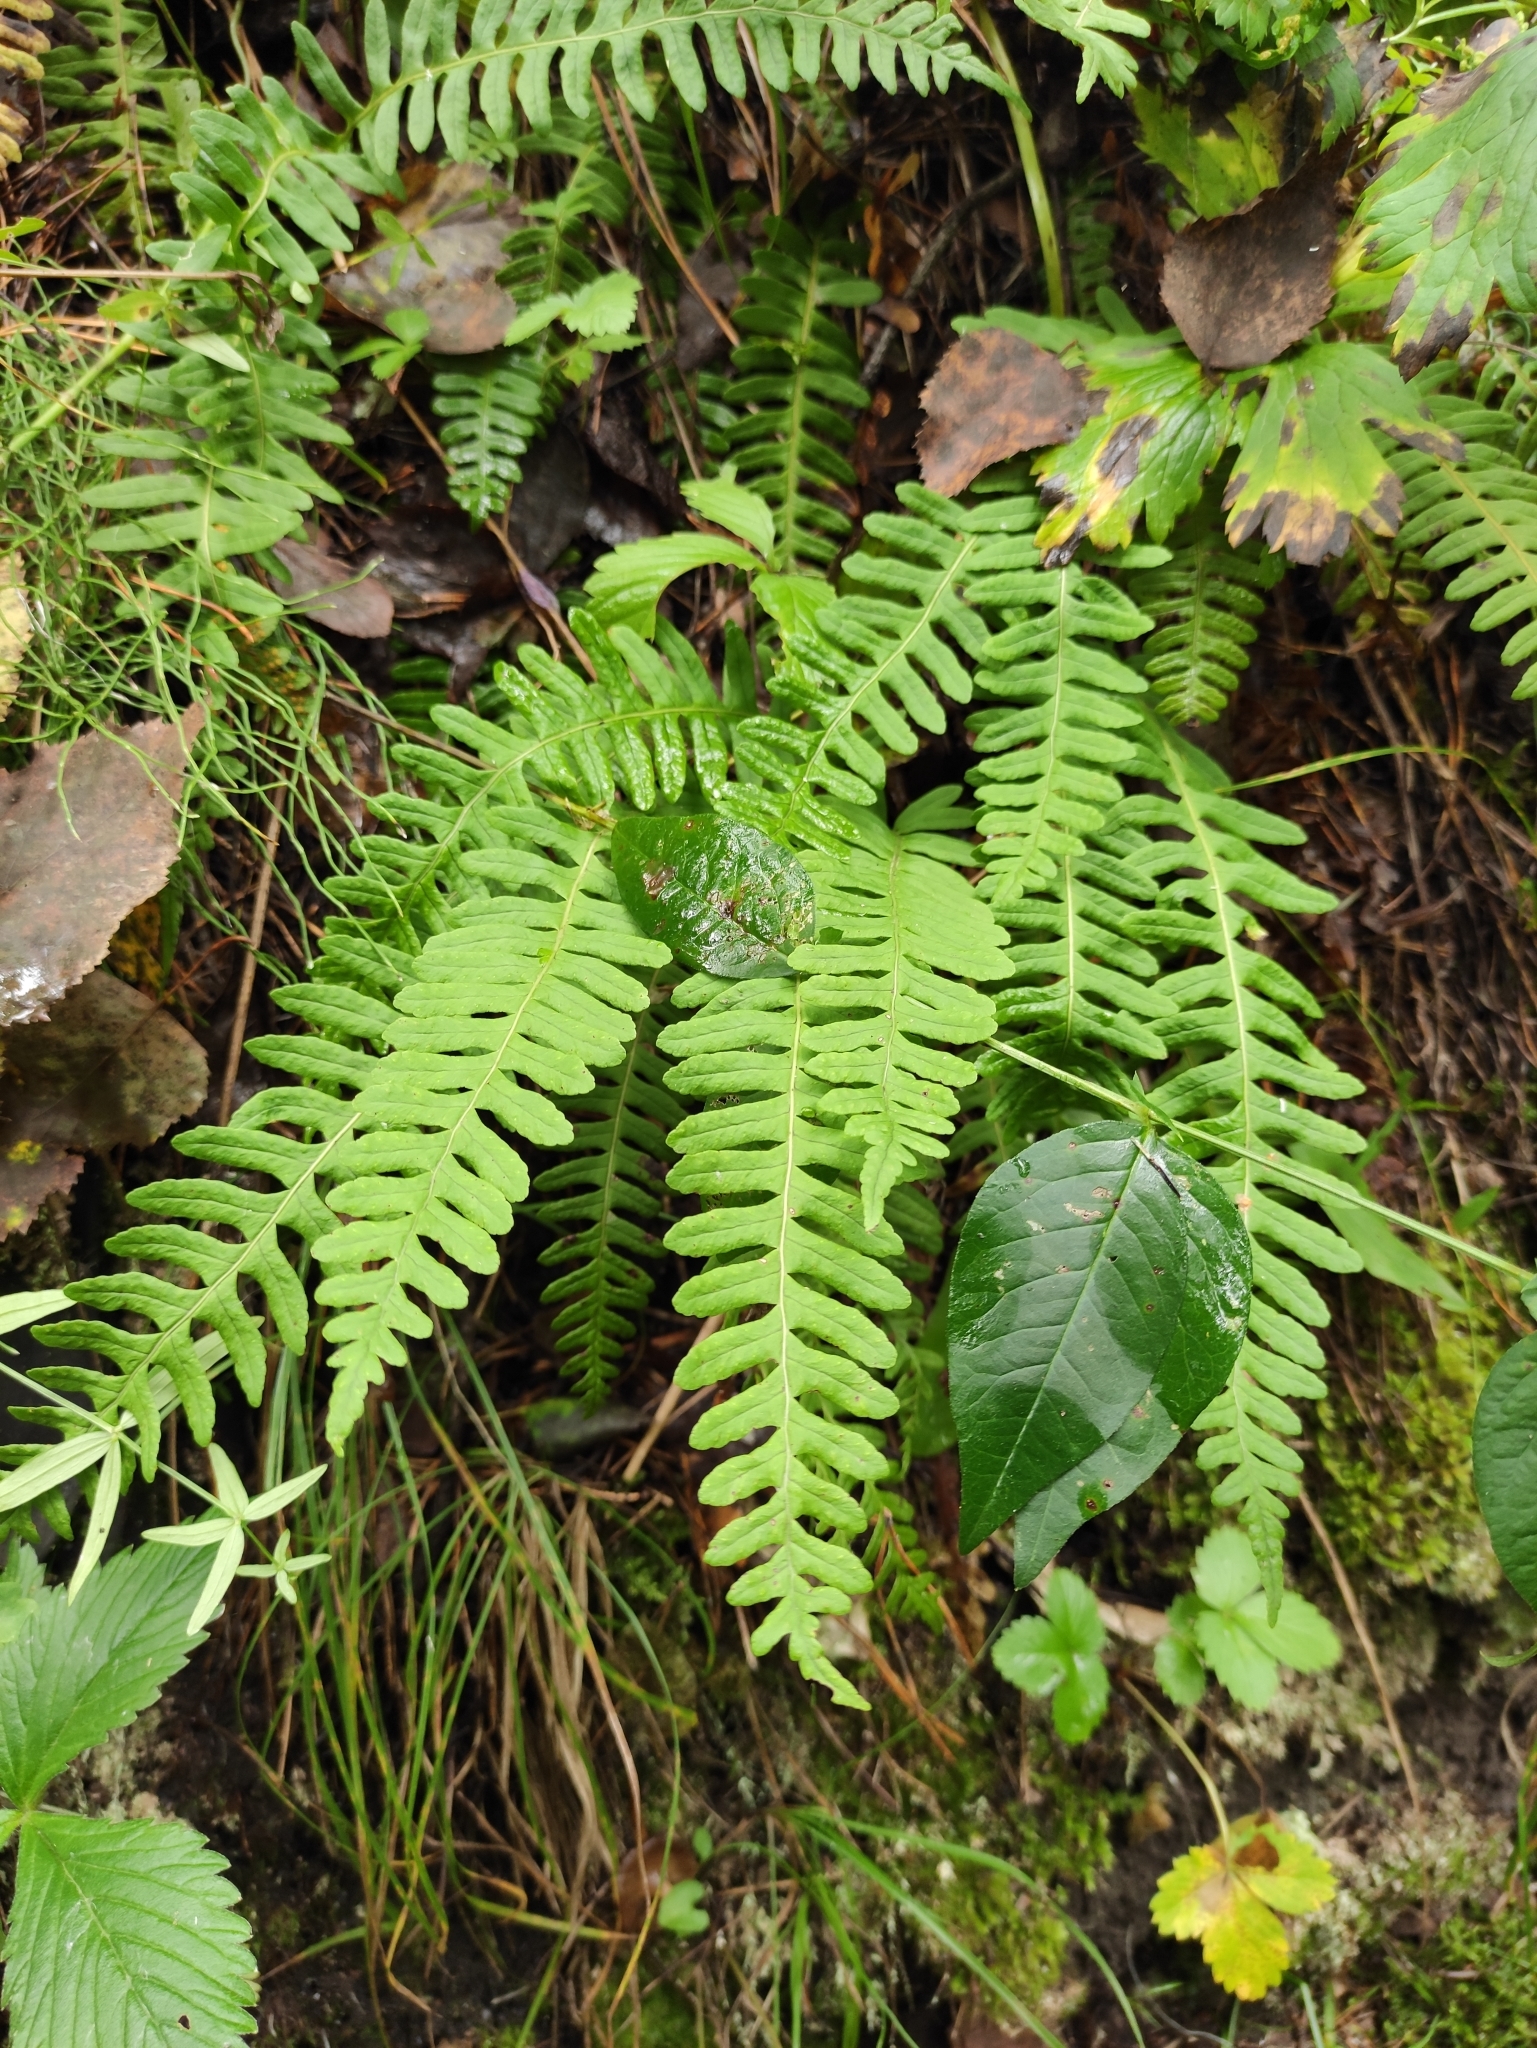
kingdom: Plantae
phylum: Tracheophyta
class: Polypodiopsida
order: Polypodiales
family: Polypodiaceae
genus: Polypodium
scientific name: Polypodium sibiricum
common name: Siberian polypody
